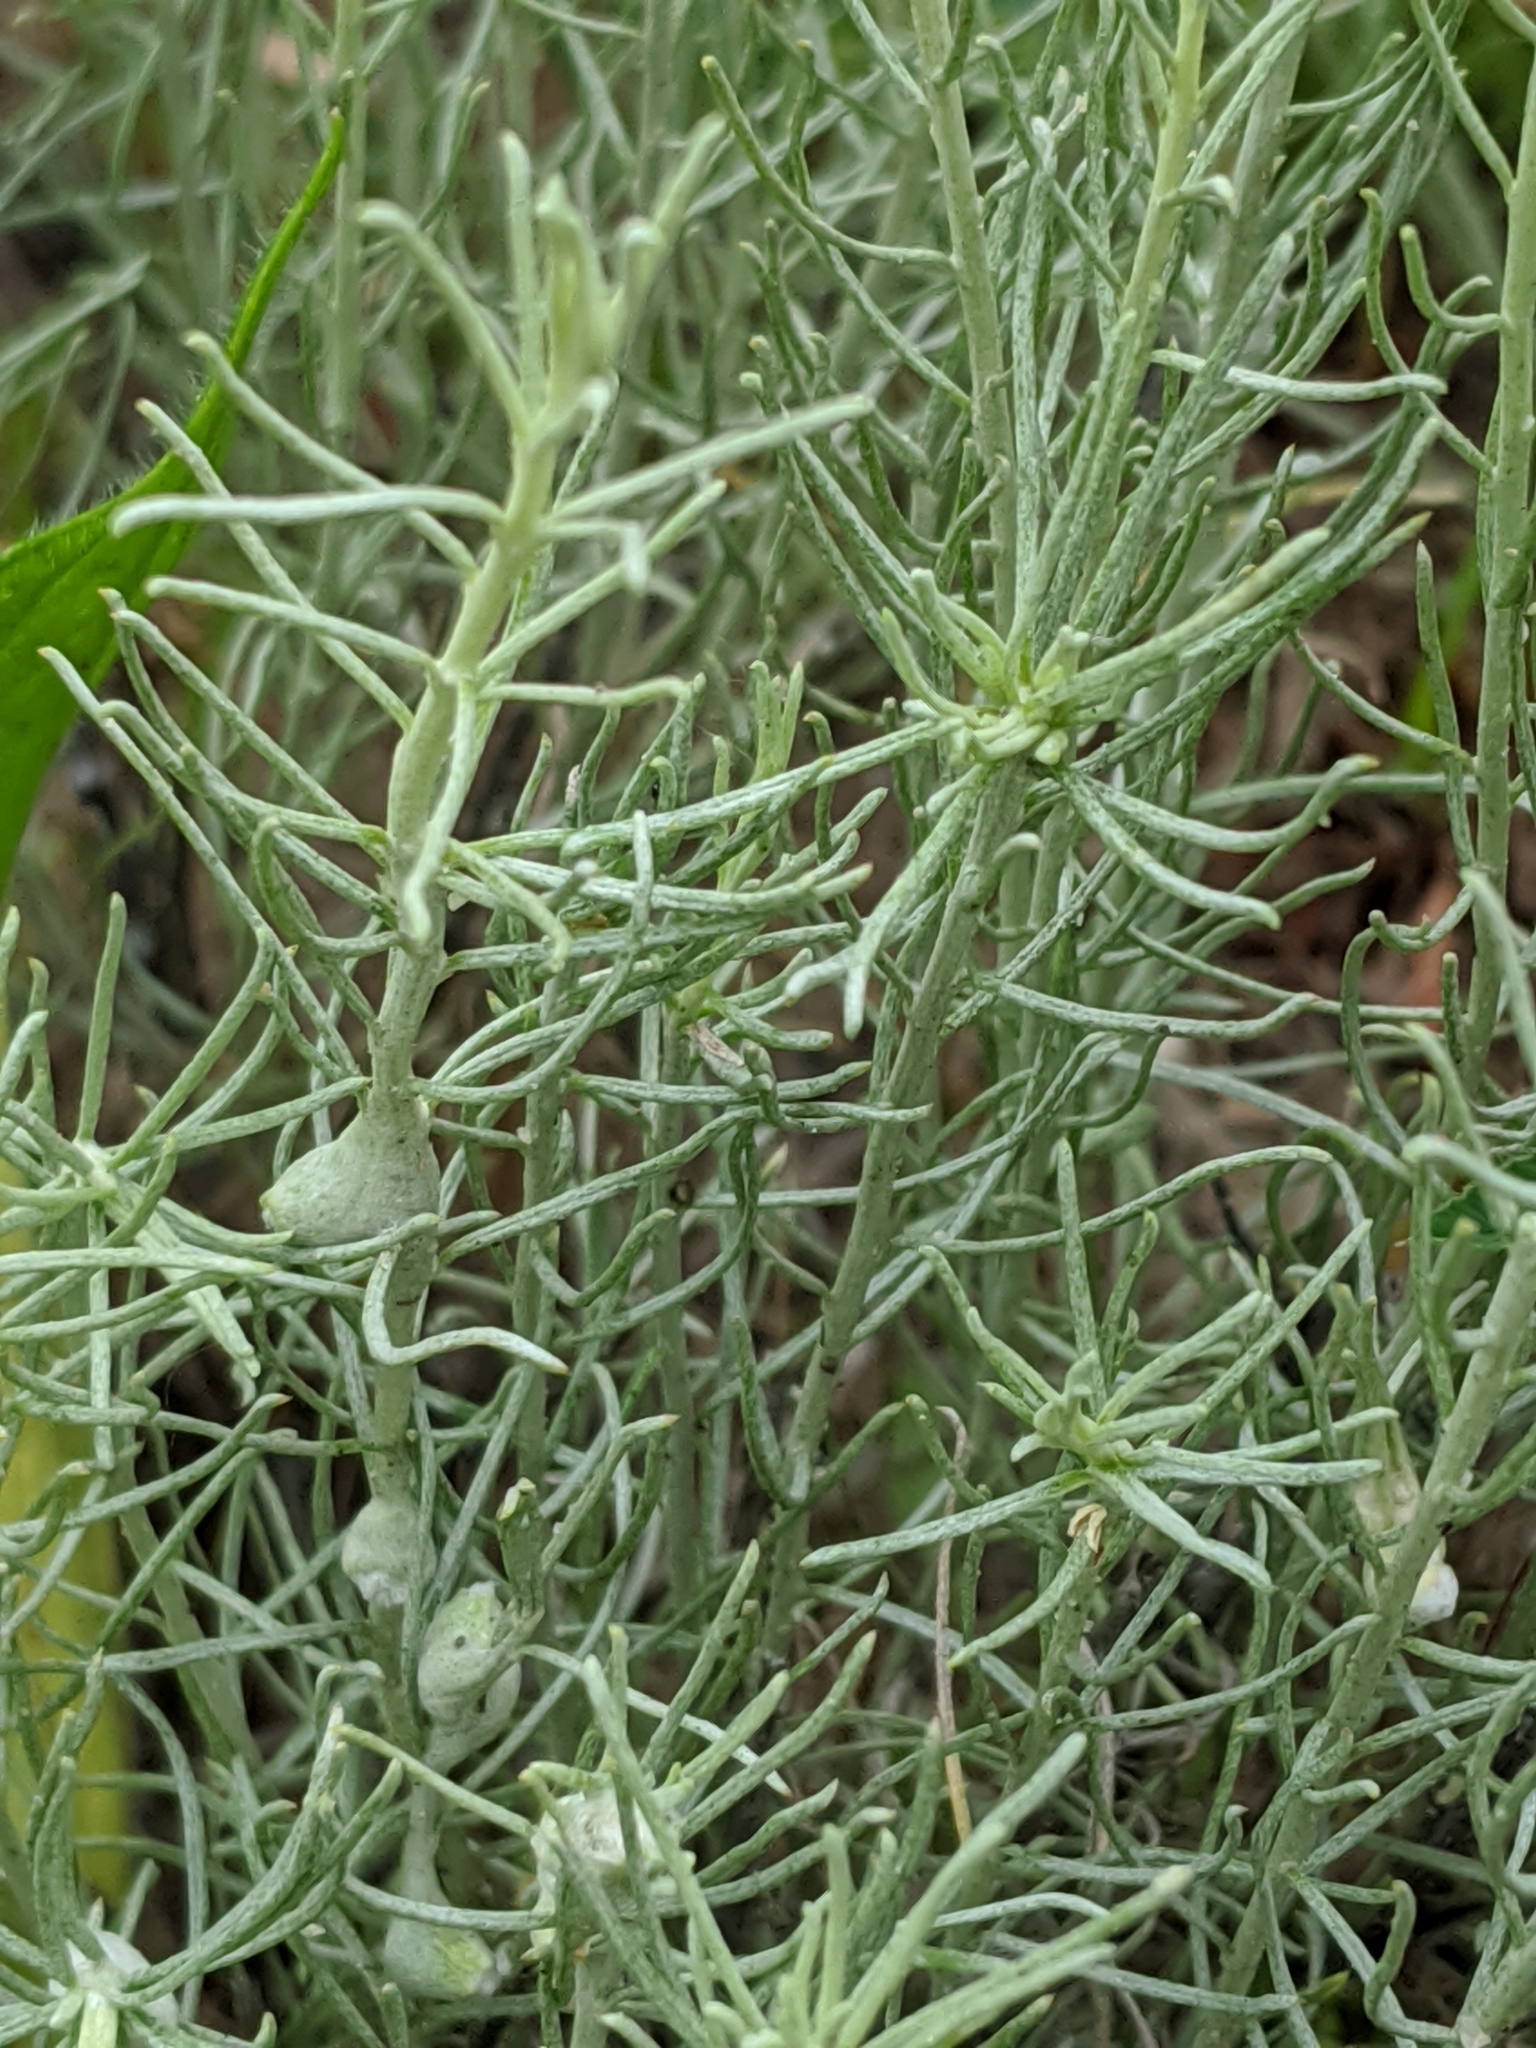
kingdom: Plantae
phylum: Tracheophyta
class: Magnoliopsida
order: Asterales
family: Asteraceae
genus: Ericameria
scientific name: Ericameria nauseosa
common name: Rubber rabbitbrush
